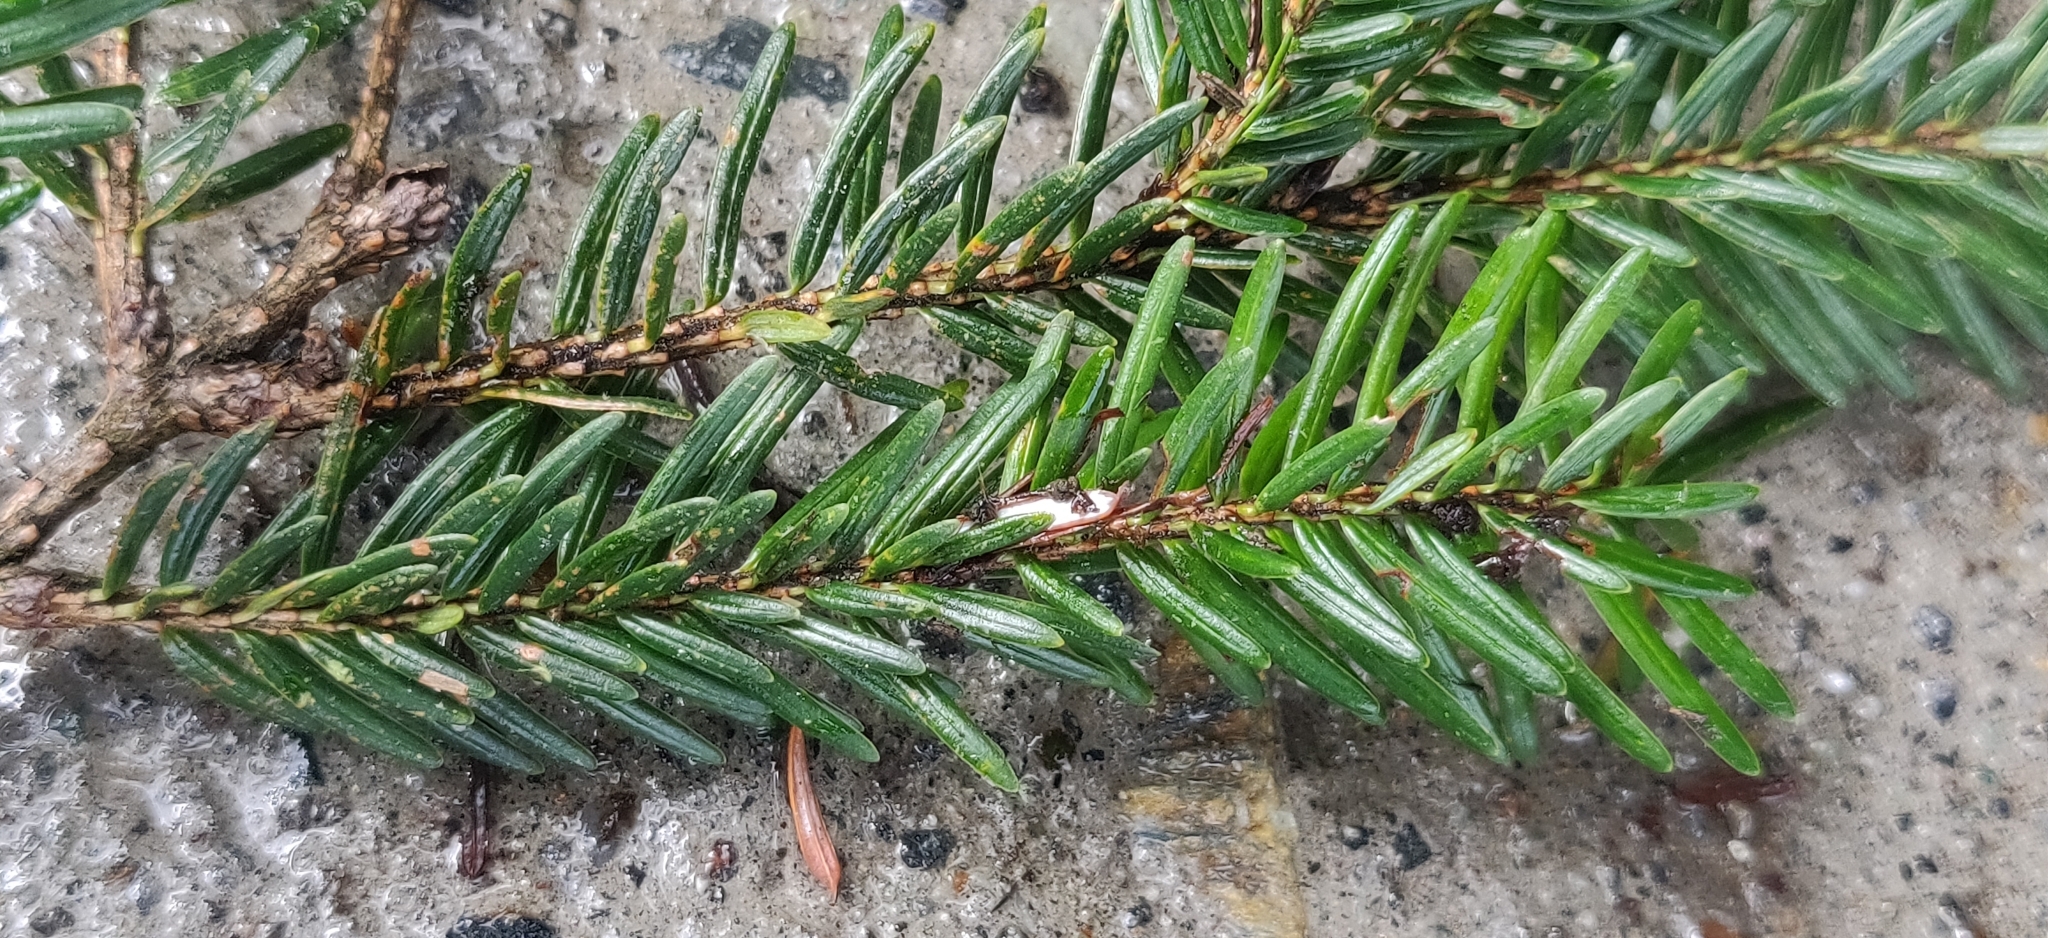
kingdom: Plantae
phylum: Tracheophyta
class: Pinopsida
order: Pinales
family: Pinaceae
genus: Tsuga
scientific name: Tsuga dumosa
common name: Himalayan hemlock
